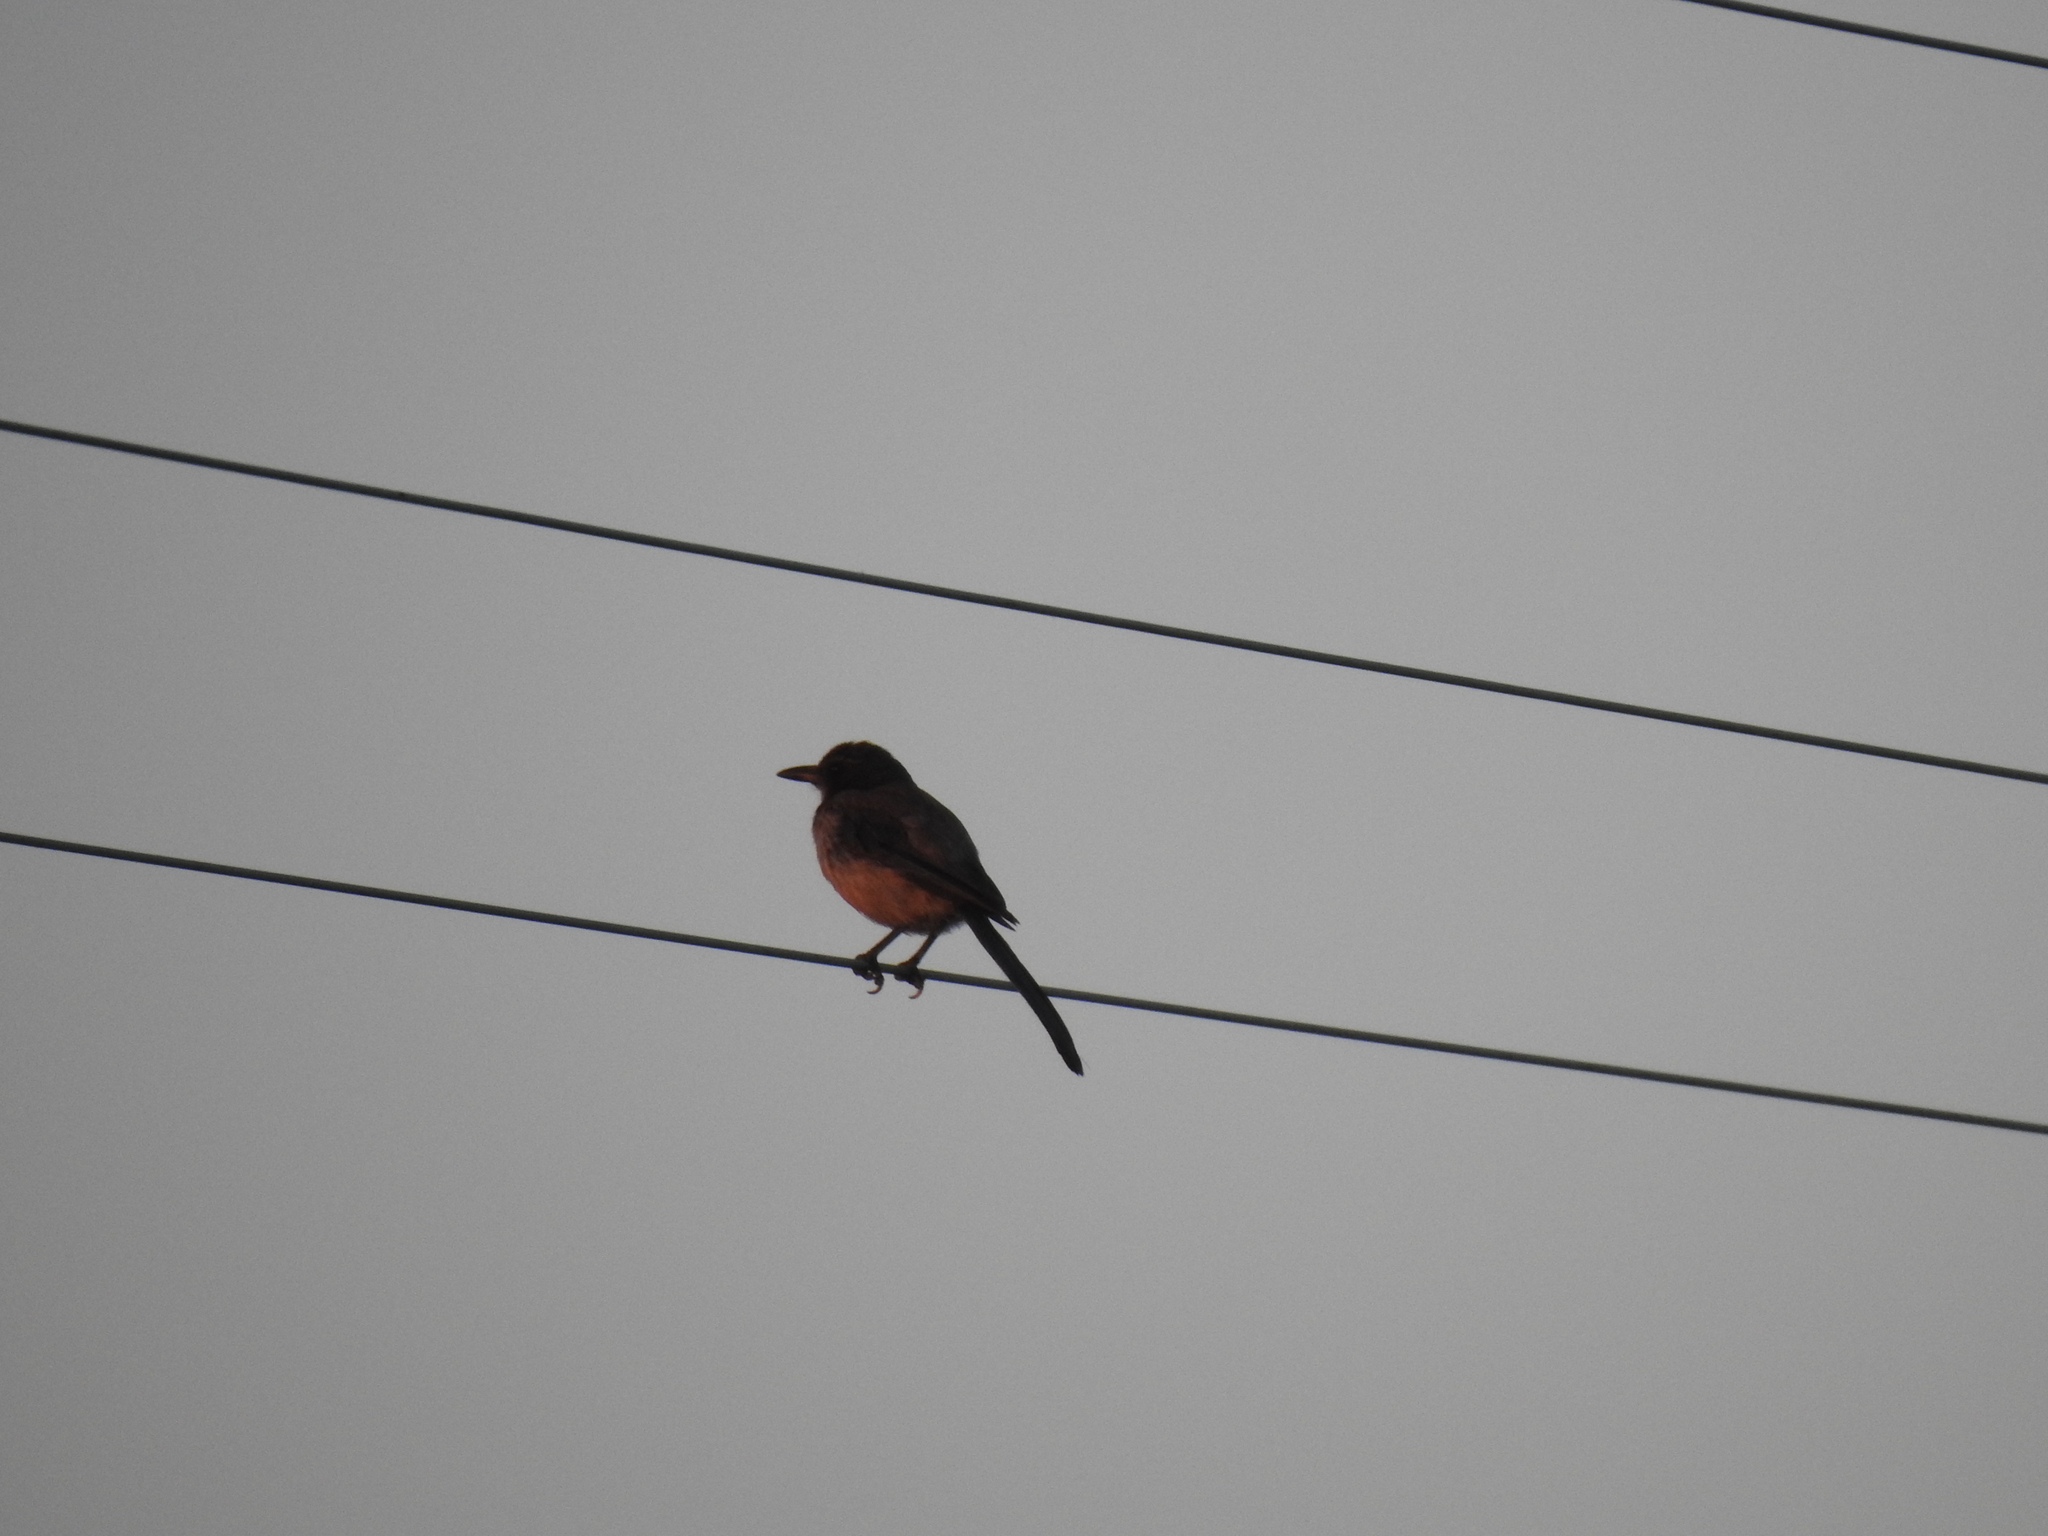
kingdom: Animalia
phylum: Chordata
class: Aves
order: Passeriformes
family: Corvidae
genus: Aphelocoma
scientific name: Aphelocoma californica
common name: California scrub-jay
